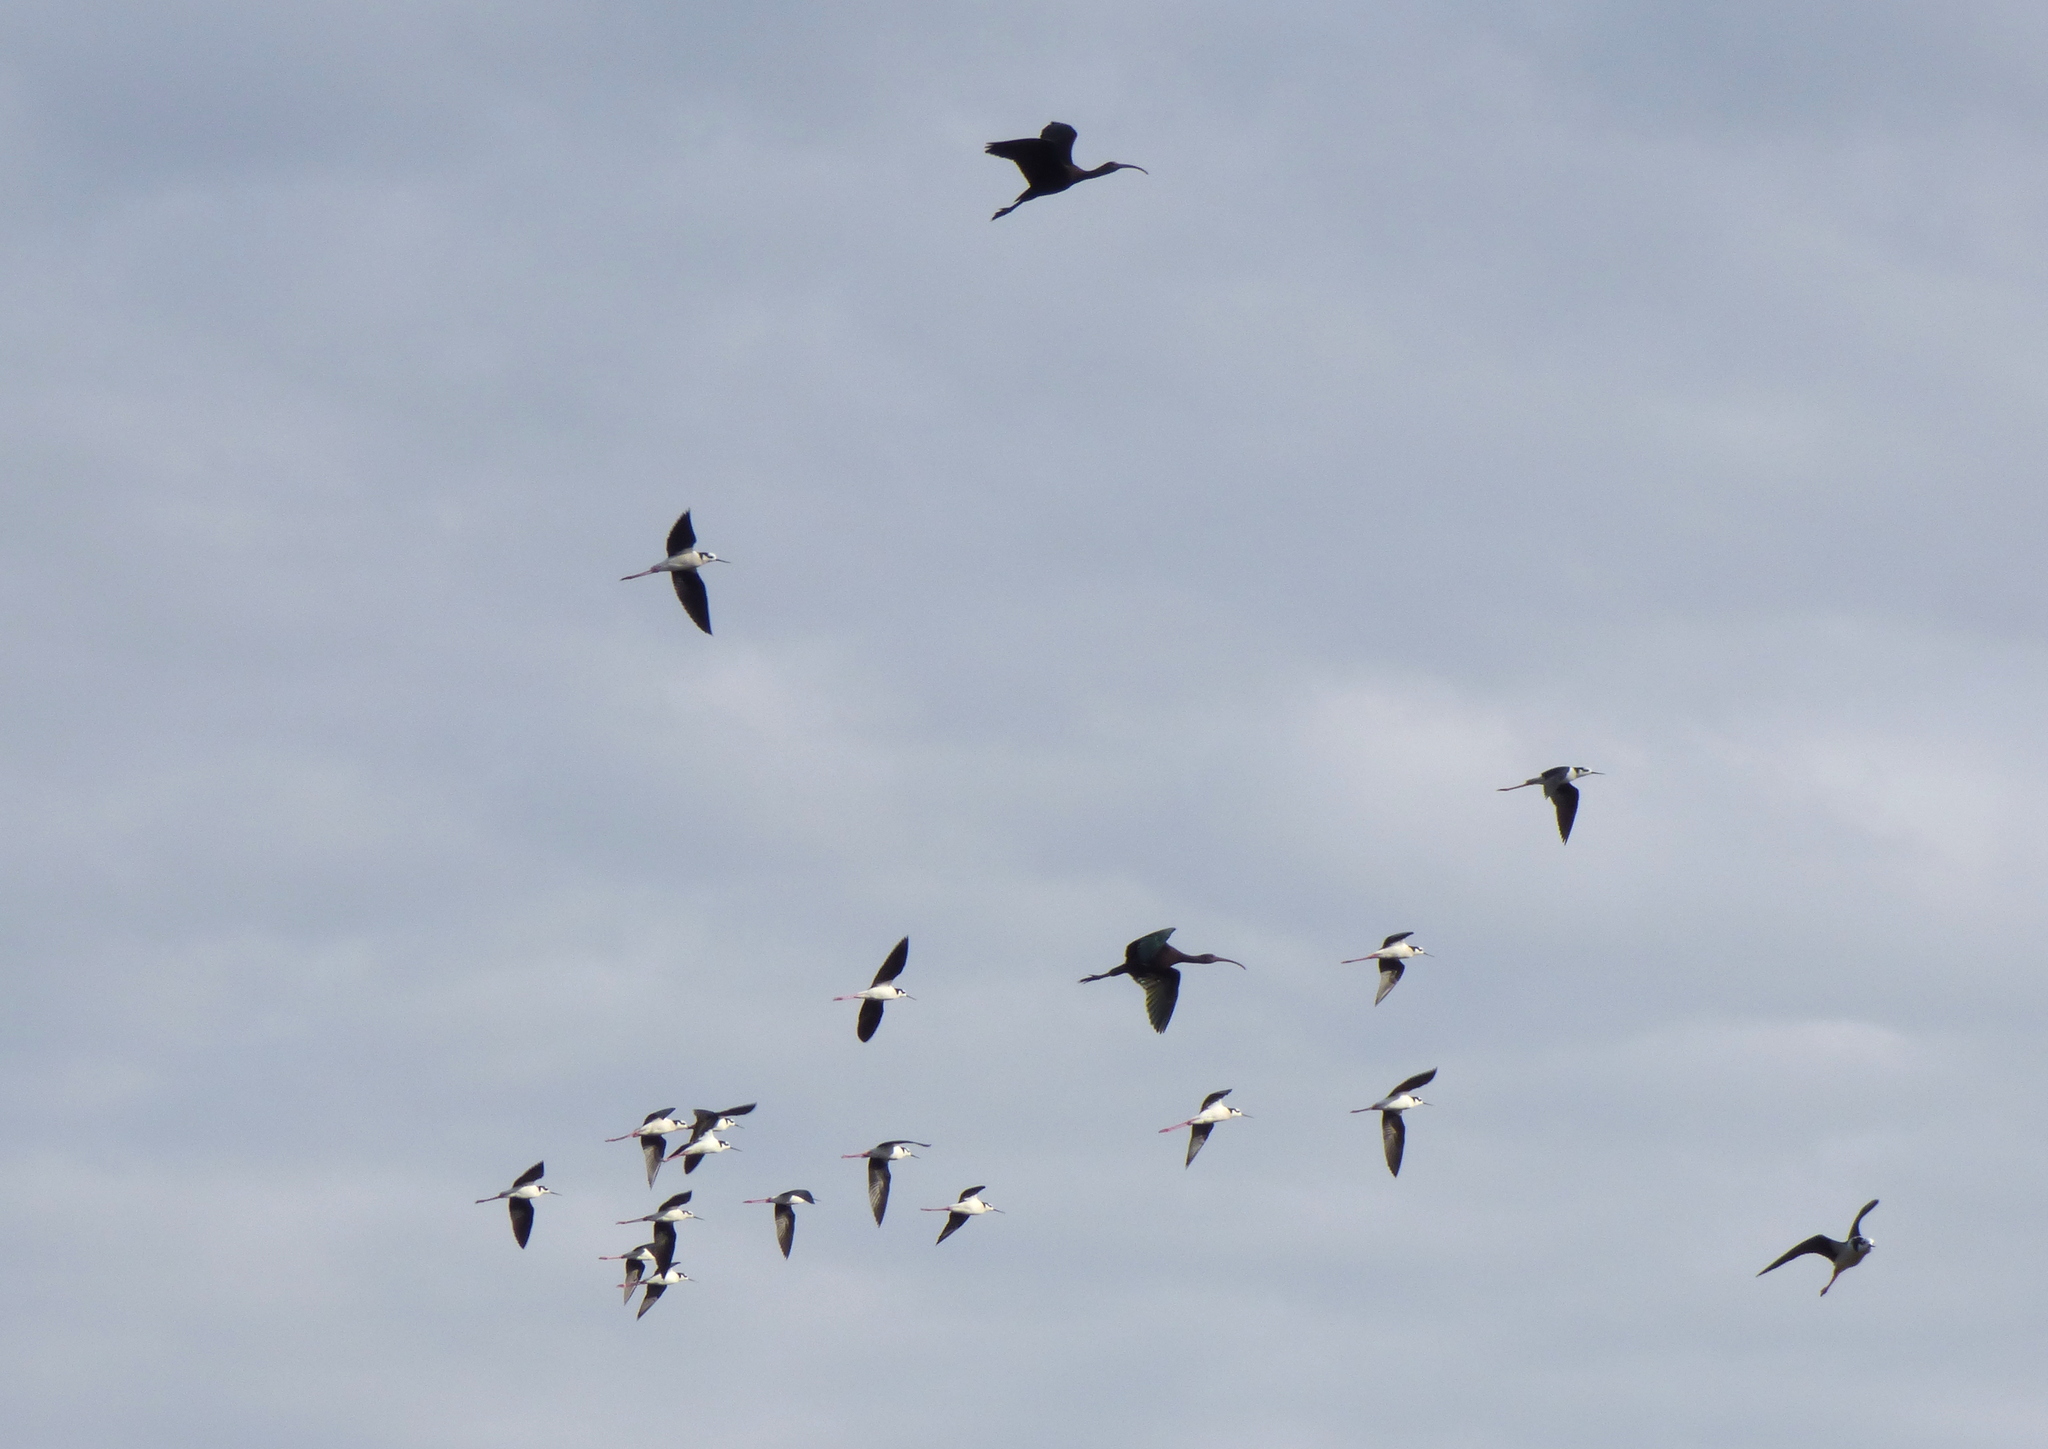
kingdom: Animalia
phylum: Chordata
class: Aves
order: Charadriiformes
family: Recurvirostridae
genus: Himantopus
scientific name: Himantopus mexicanus
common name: Black-necked stilt
